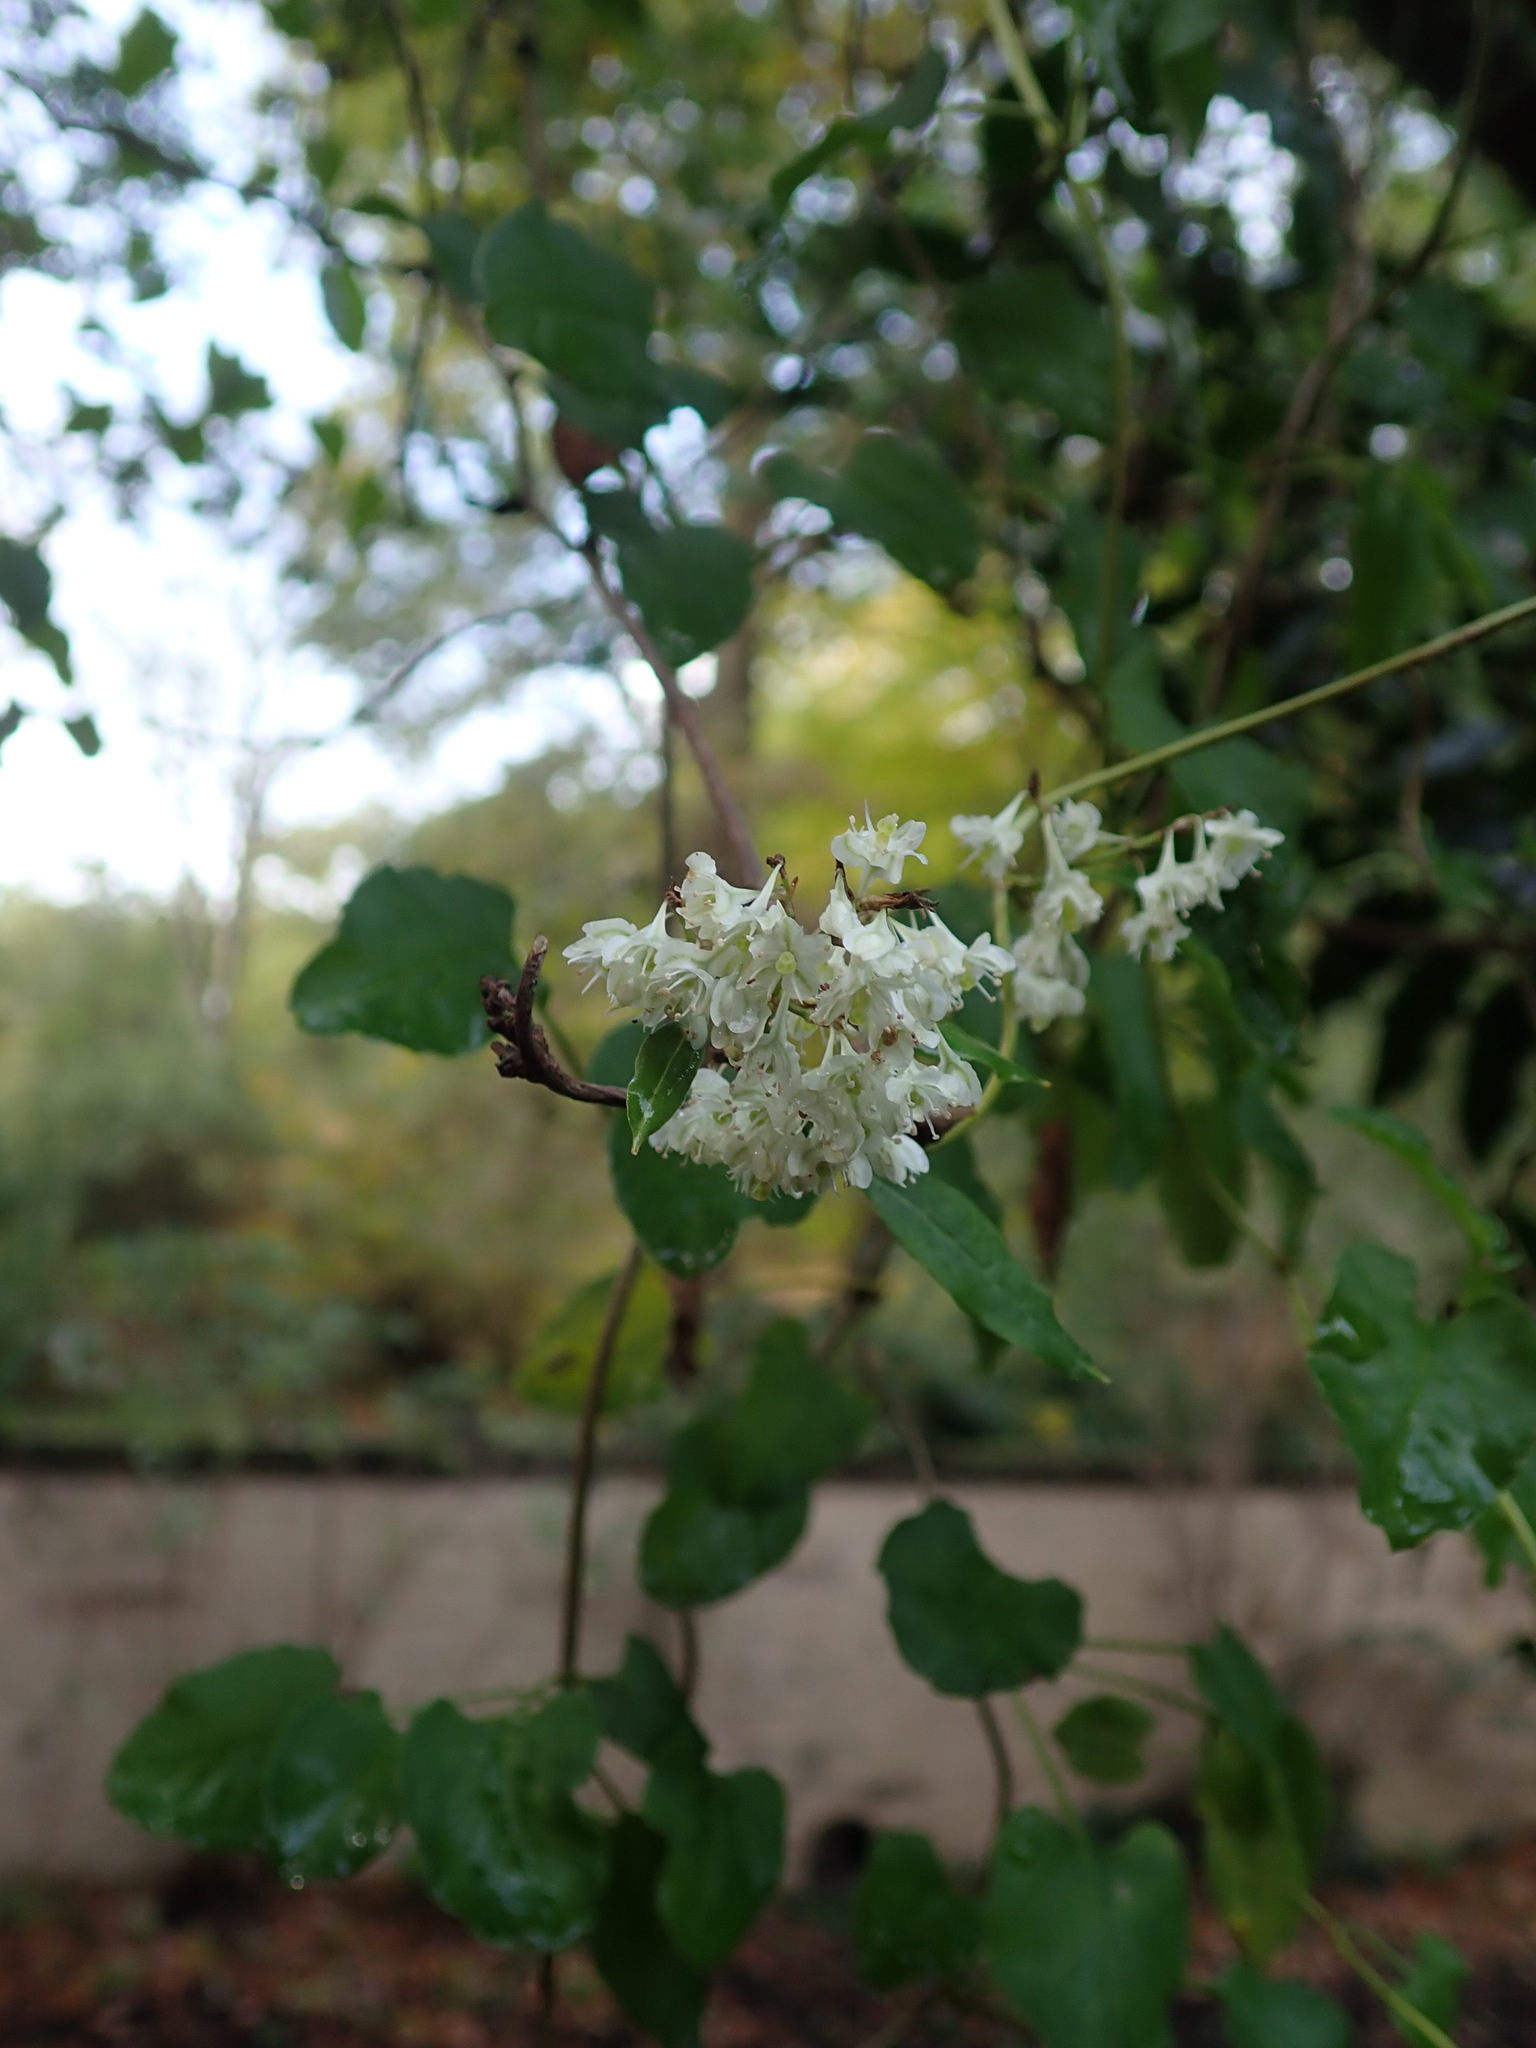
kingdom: Plantae
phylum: Tracheophyta
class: Magnoliopsida
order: Caryophyllales
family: Polygonaceae
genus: Fallopia
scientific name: Fallopia baldschuanica
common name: Russian-vine
